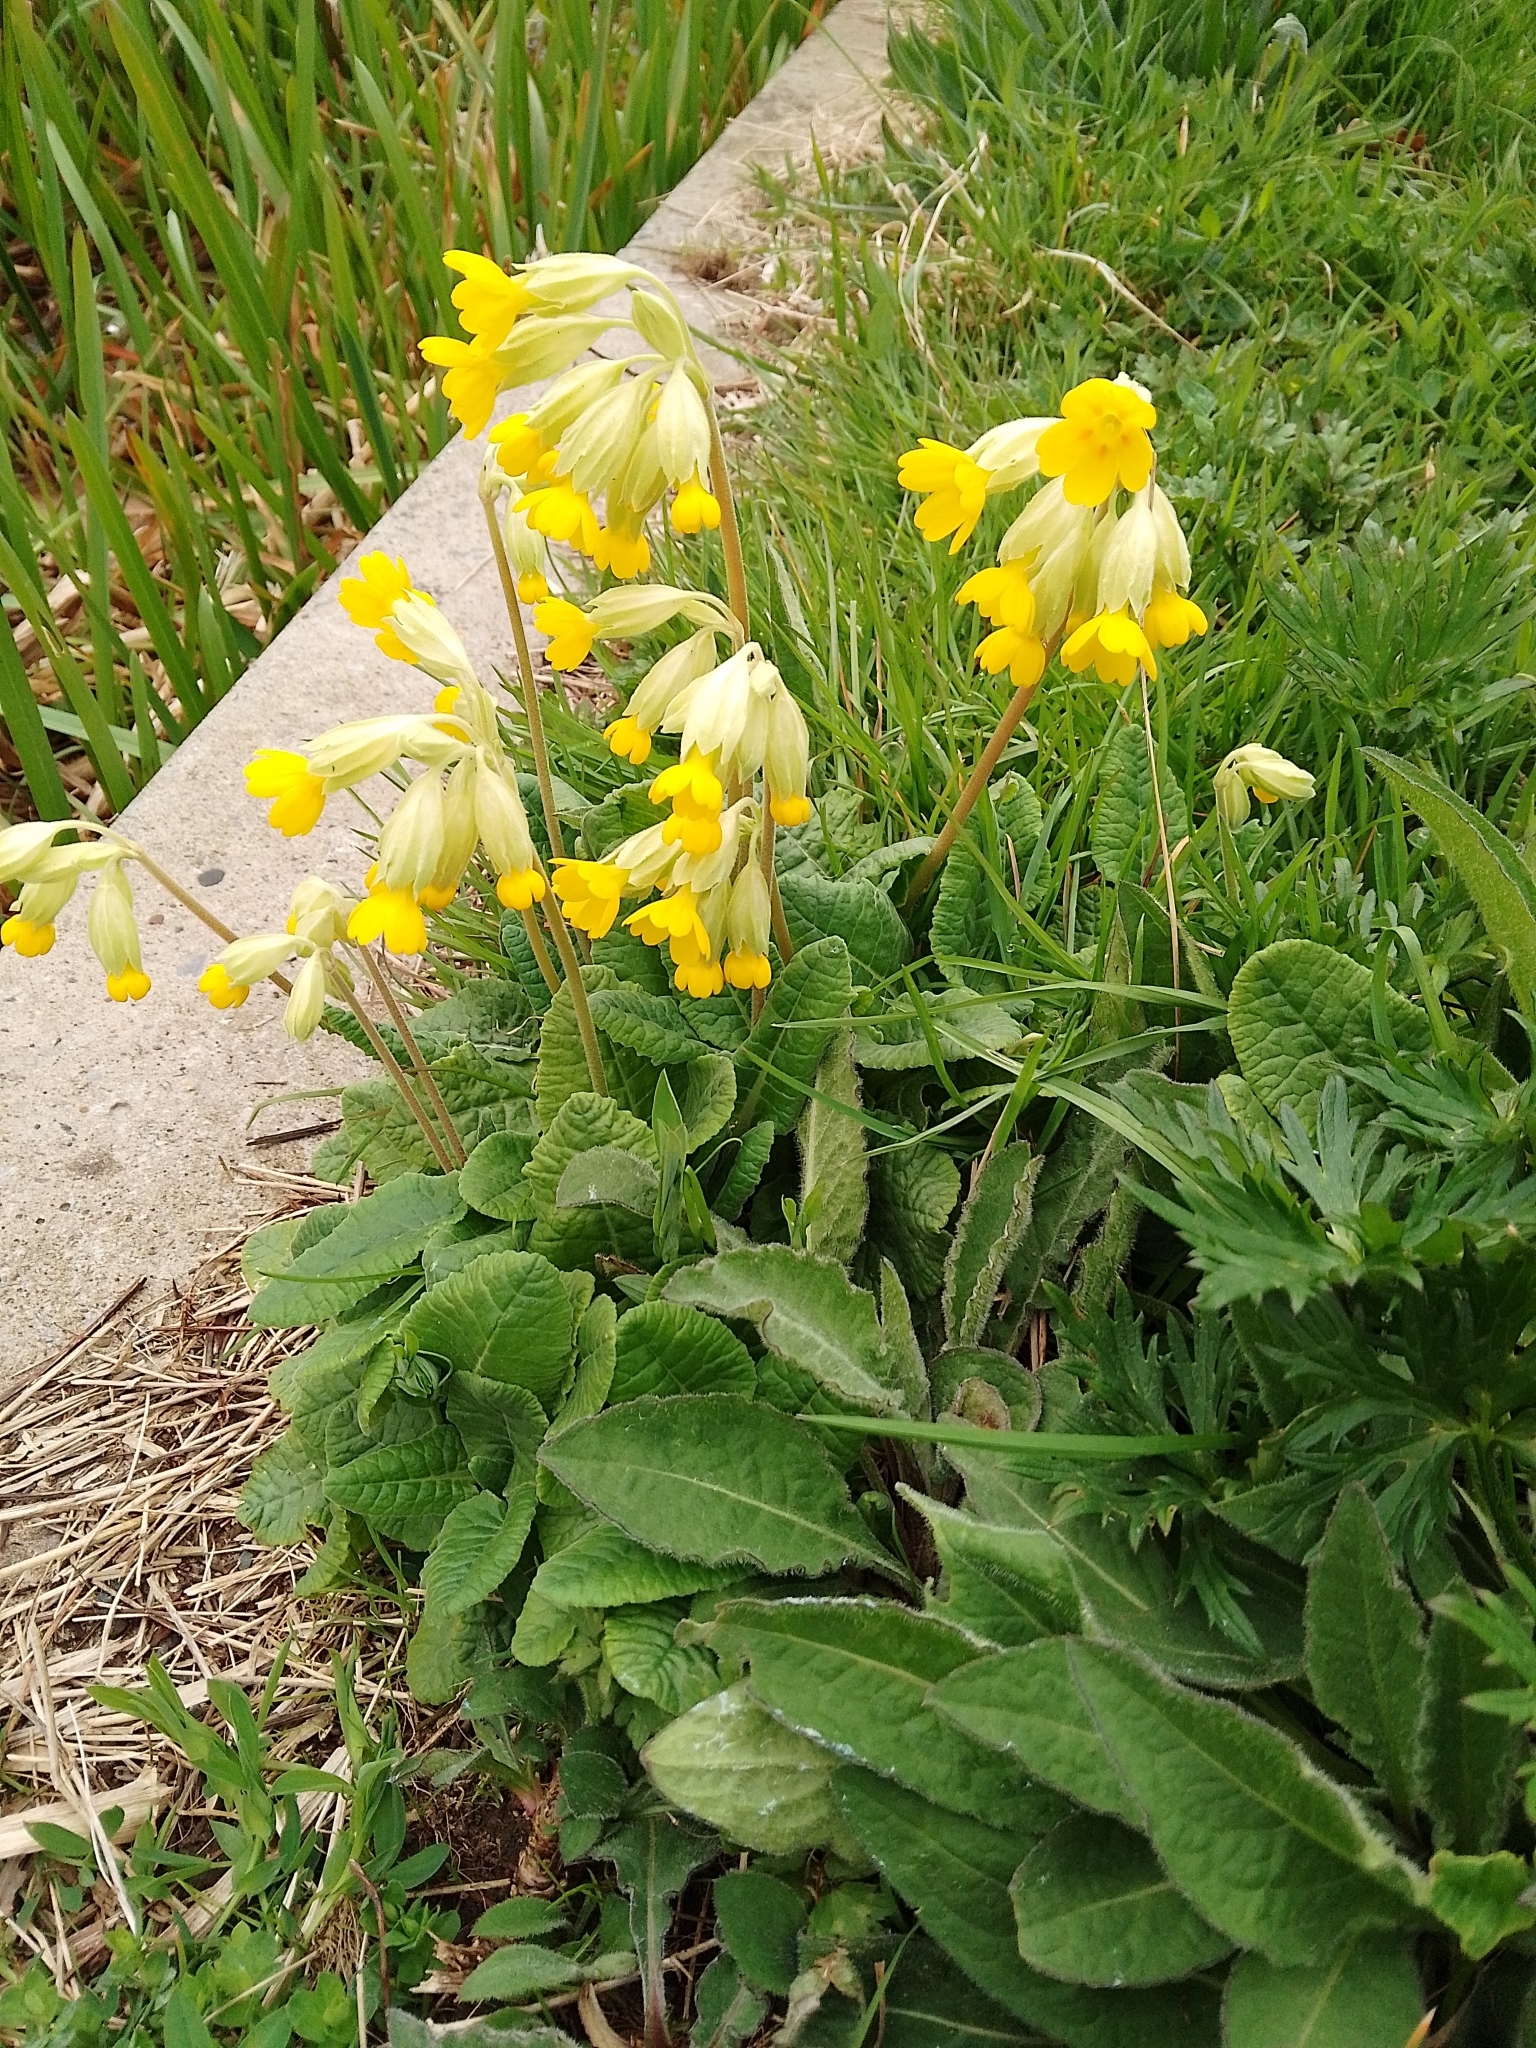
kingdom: Plantae
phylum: Tracheophyta
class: Magnoliopsida
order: Ericales
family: Primulaceae
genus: Primula
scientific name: Primula veris
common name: Cowslip
